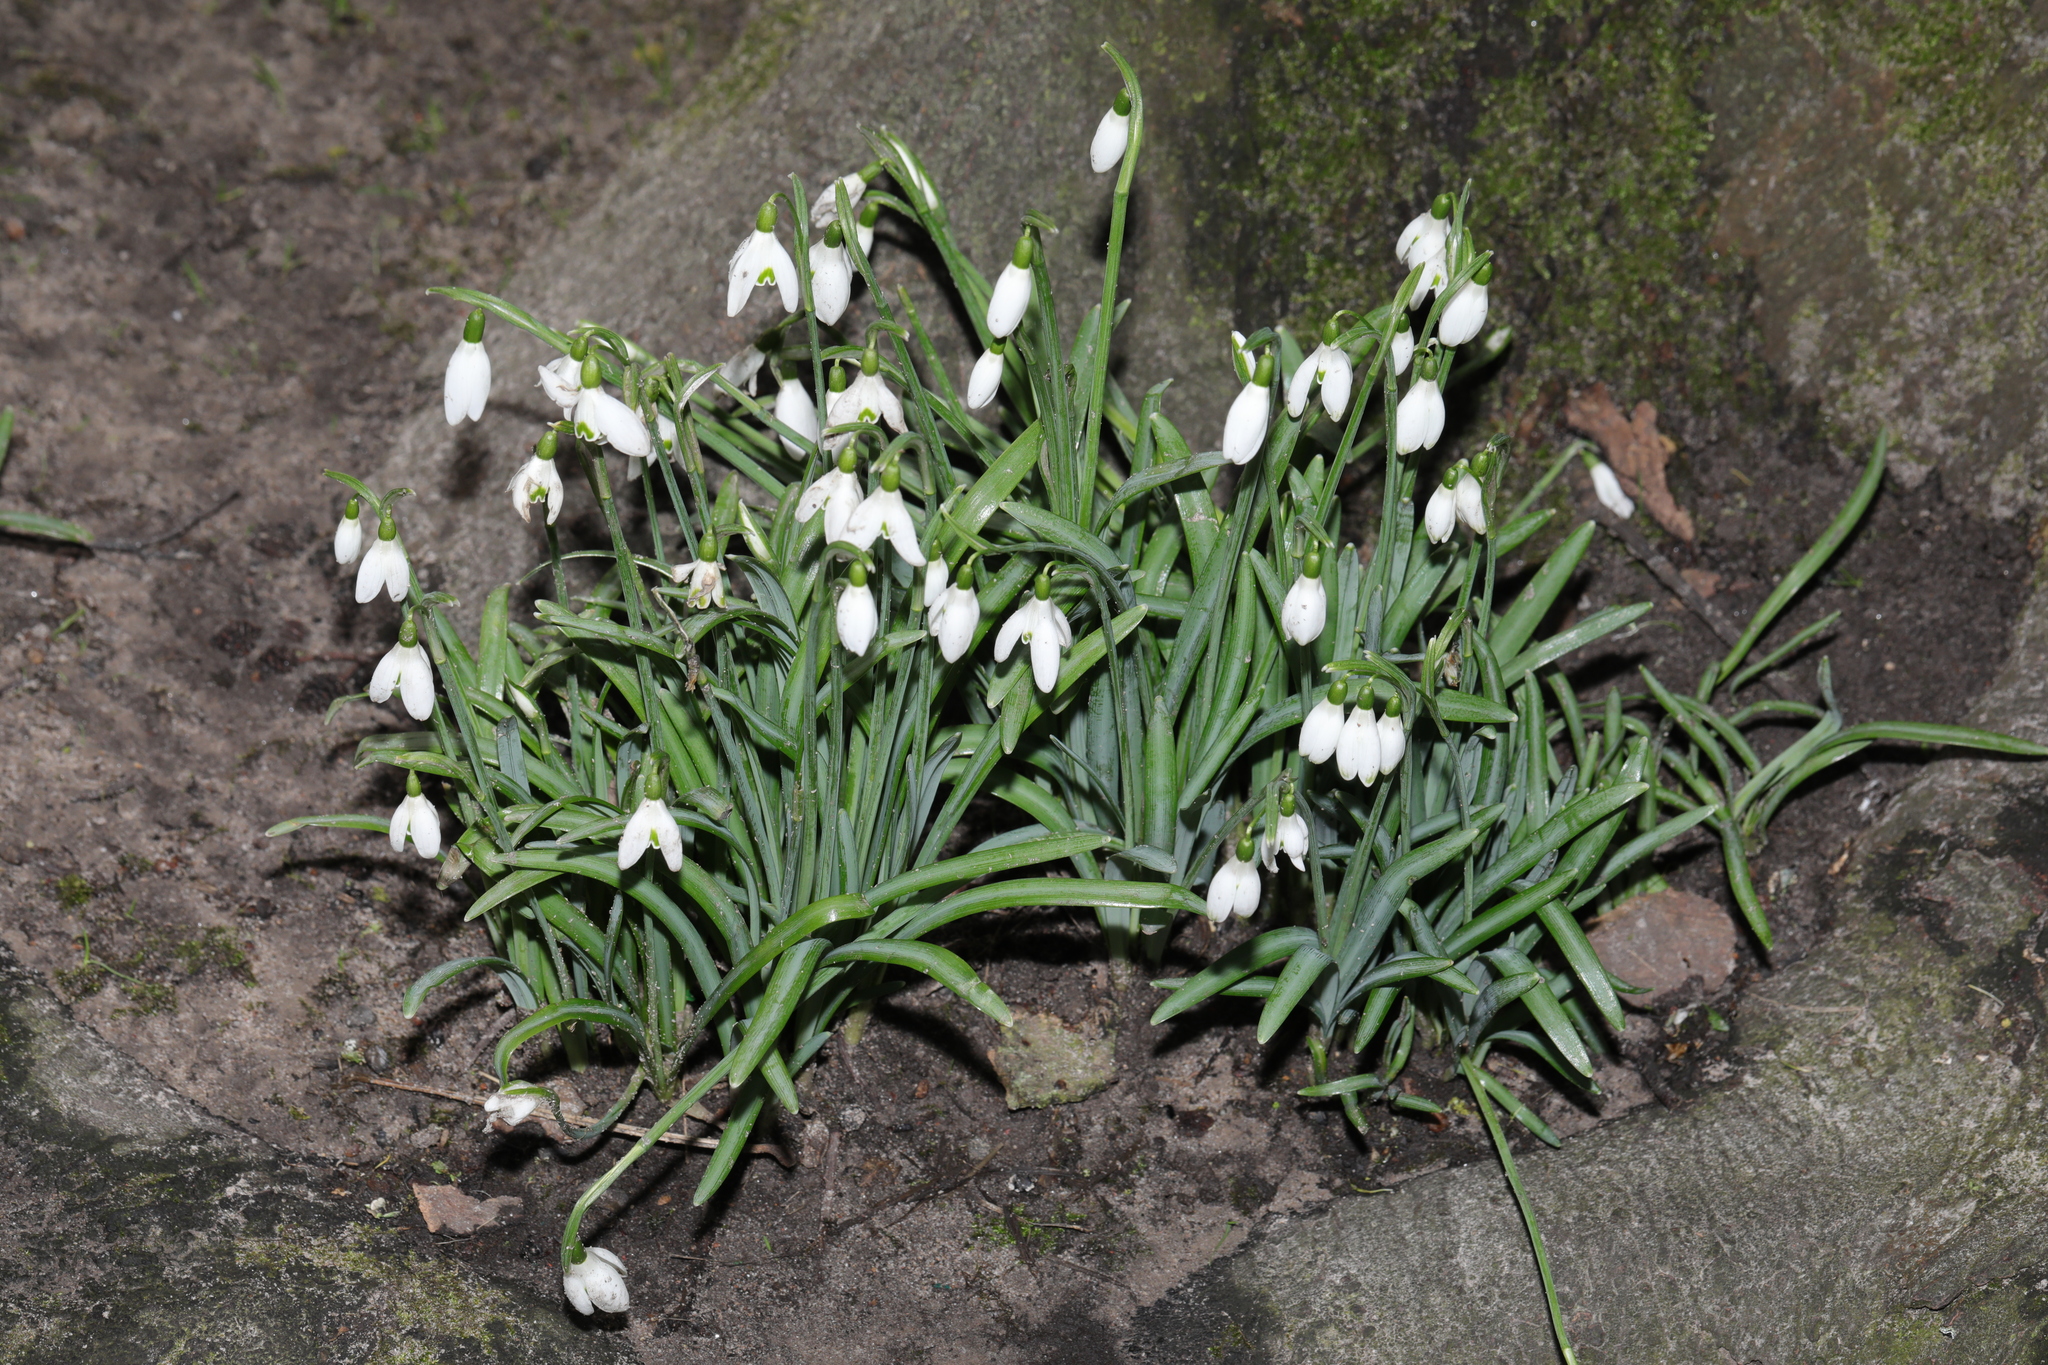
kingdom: Plantae
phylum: Tracheophyta
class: Liliopsida
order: Asparagales
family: Amaryllidaceae
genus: Galanthus
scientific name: Galanthus nivalis
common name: Snowdrop
